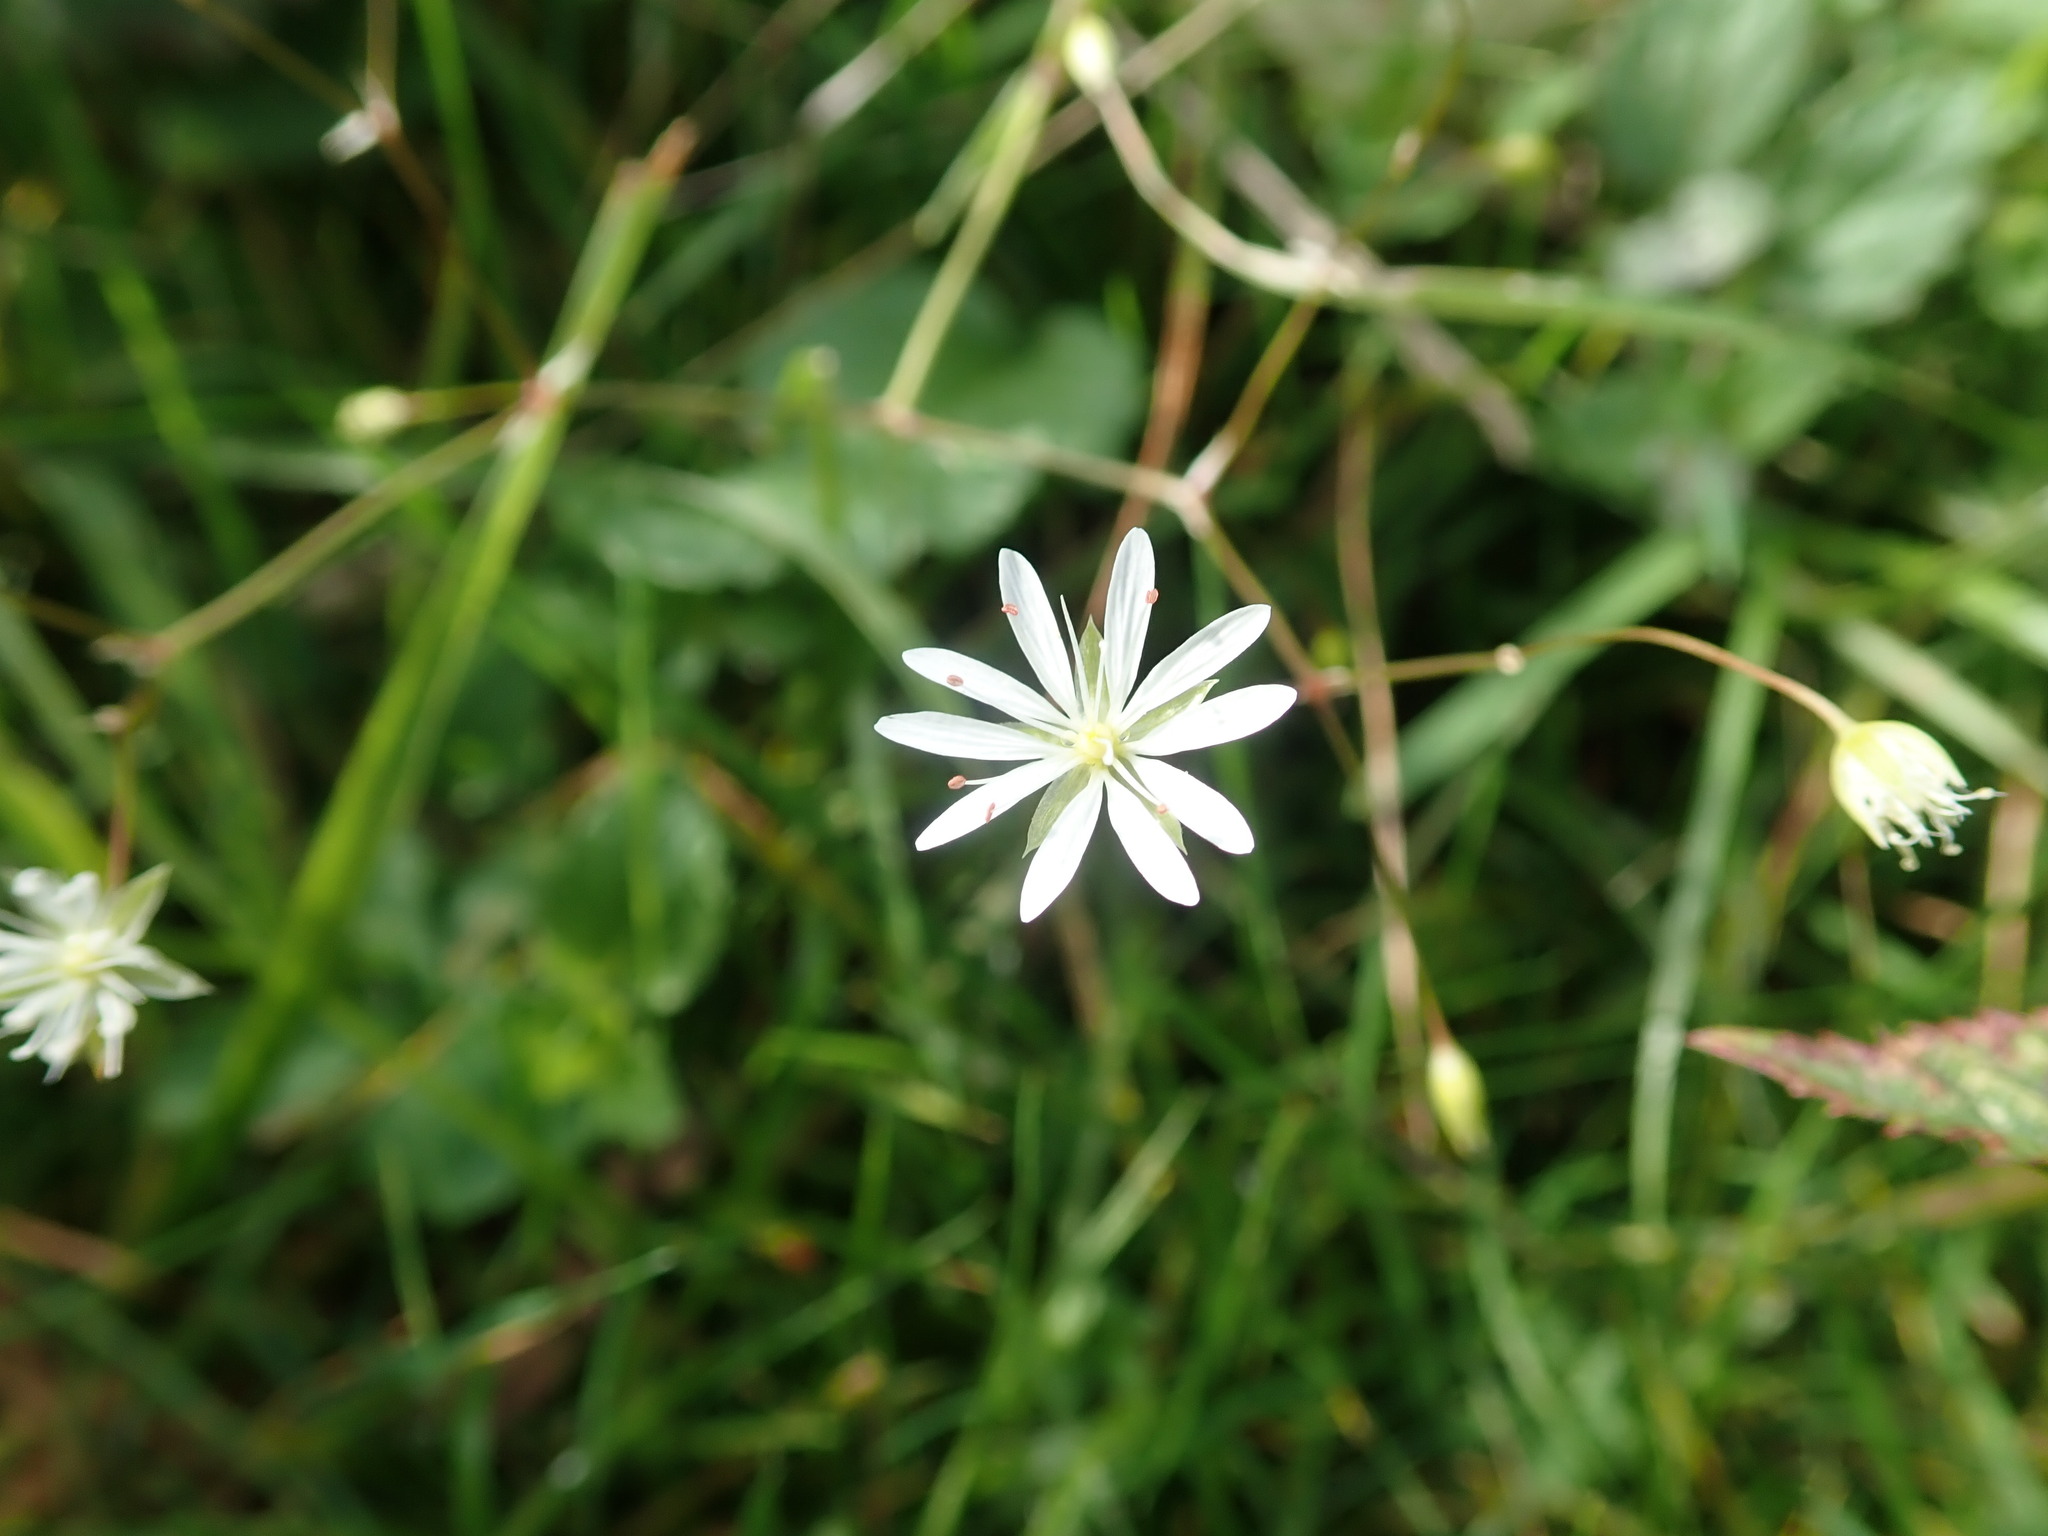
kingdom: Plantae
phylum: Tracheophyta
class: Magnoliopsida
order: Caryophyllales
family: Caryophyllaceae
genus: Stellaria
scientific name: Stellaria graminea
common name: Grass-like starwort
